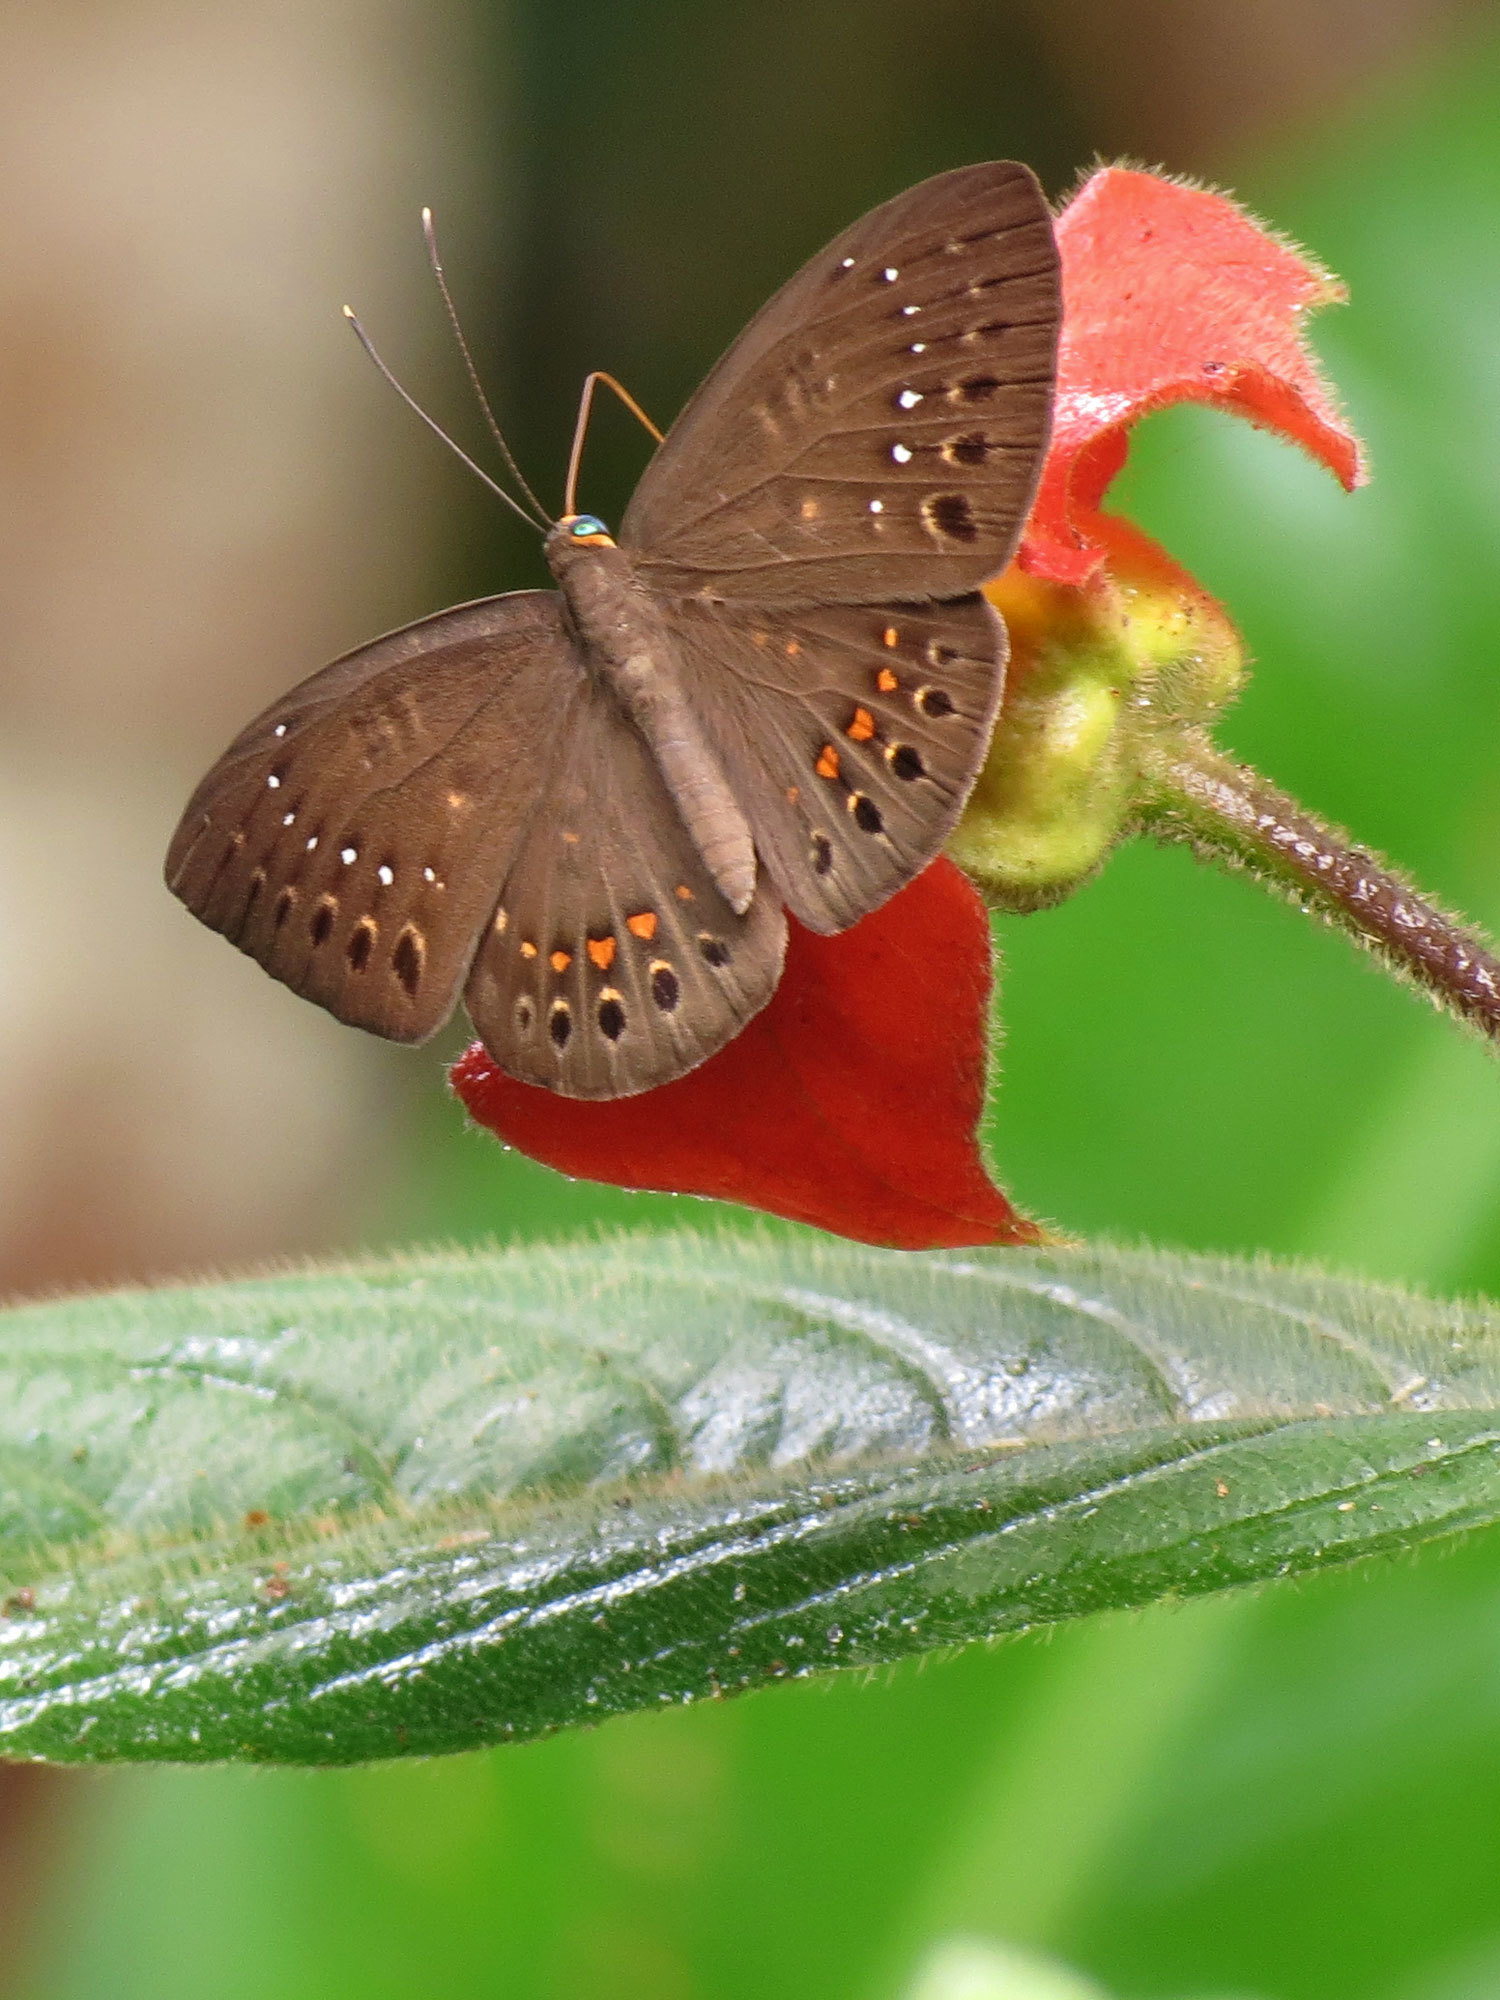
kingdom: Animalia
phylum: Cnidaria
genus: Eurybia
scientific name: Eurybia elvina
